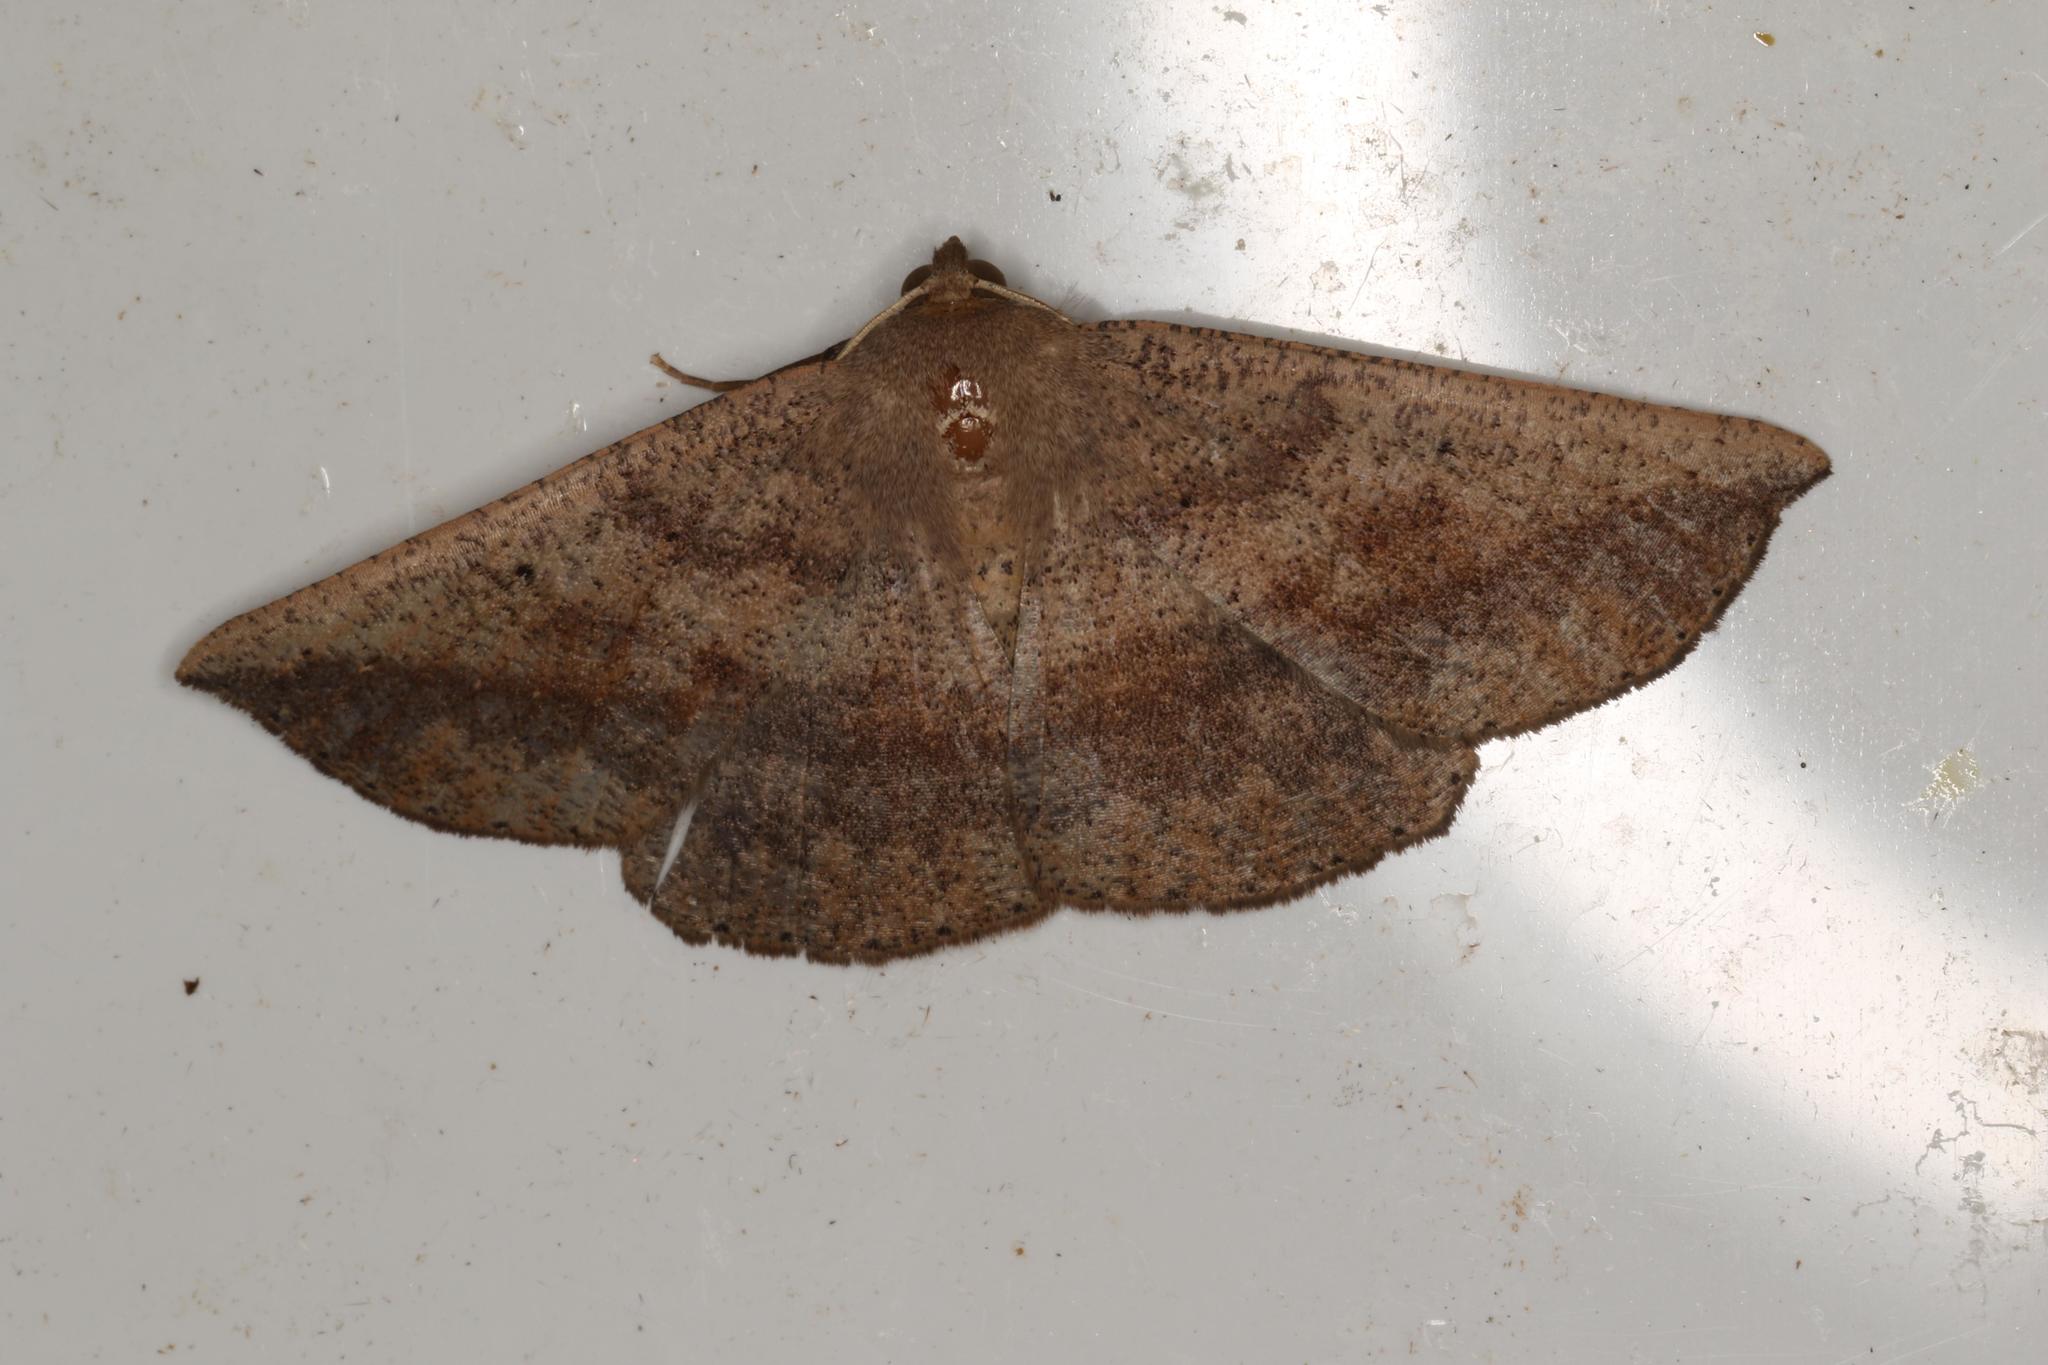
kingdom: Animalia
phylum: Arthropoda
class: Insecta
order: Lepidoptera
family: Geometridae
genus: Idiodes
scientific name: Idiodes siculoides
